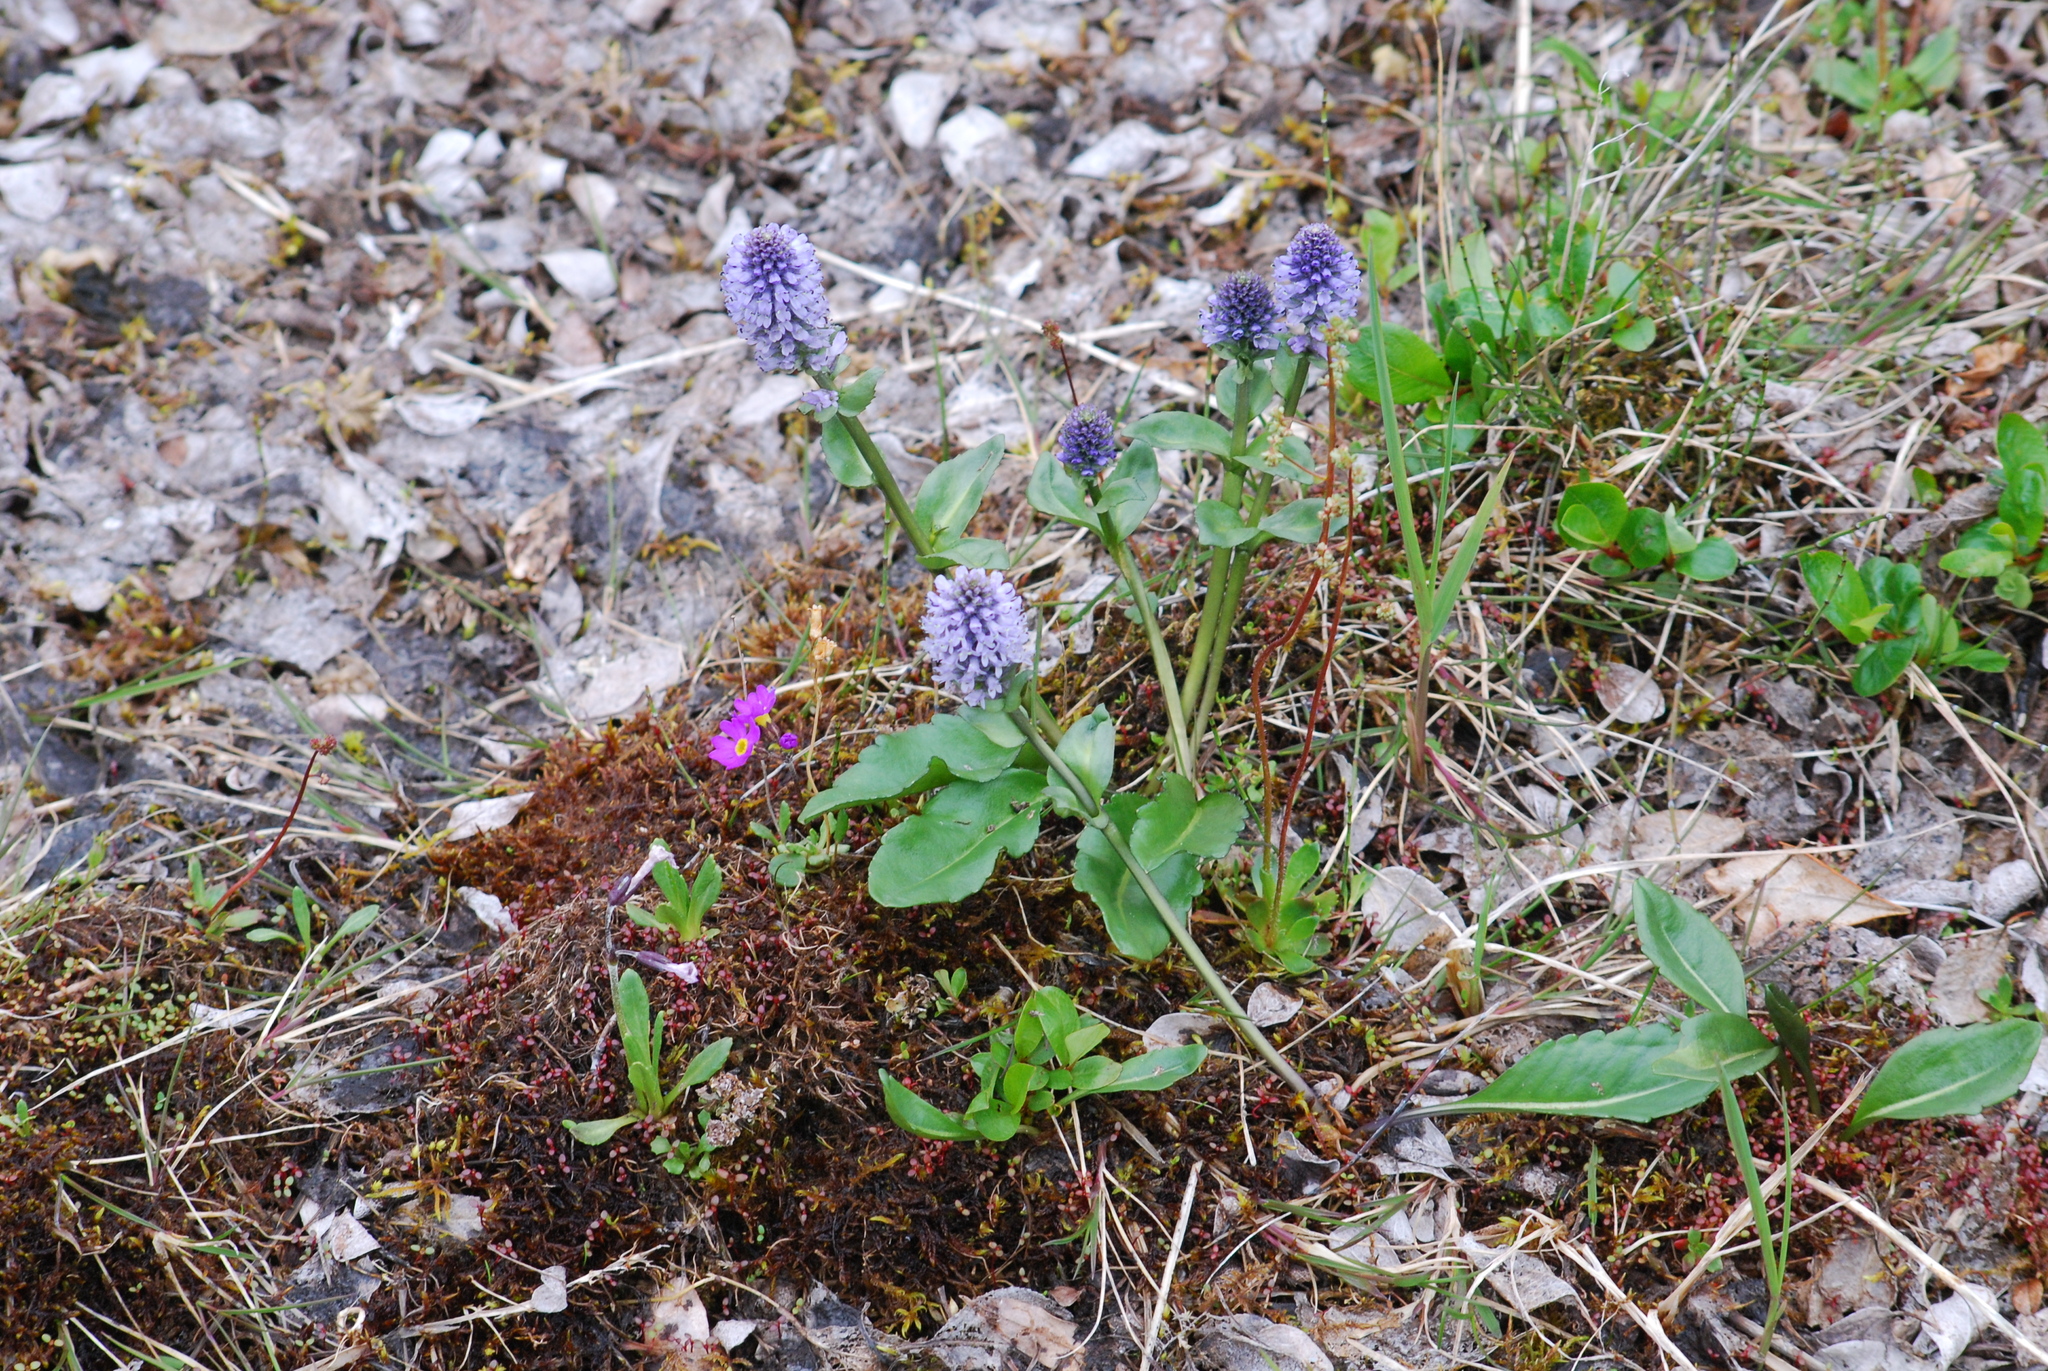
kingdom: Plantae
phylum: Tracheophyta
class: Magnoliopsida
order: Lamiales
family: Plantaginaceae
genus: Lagotis
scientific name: Lagotis glauca
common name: Glaucous weaselsnout
